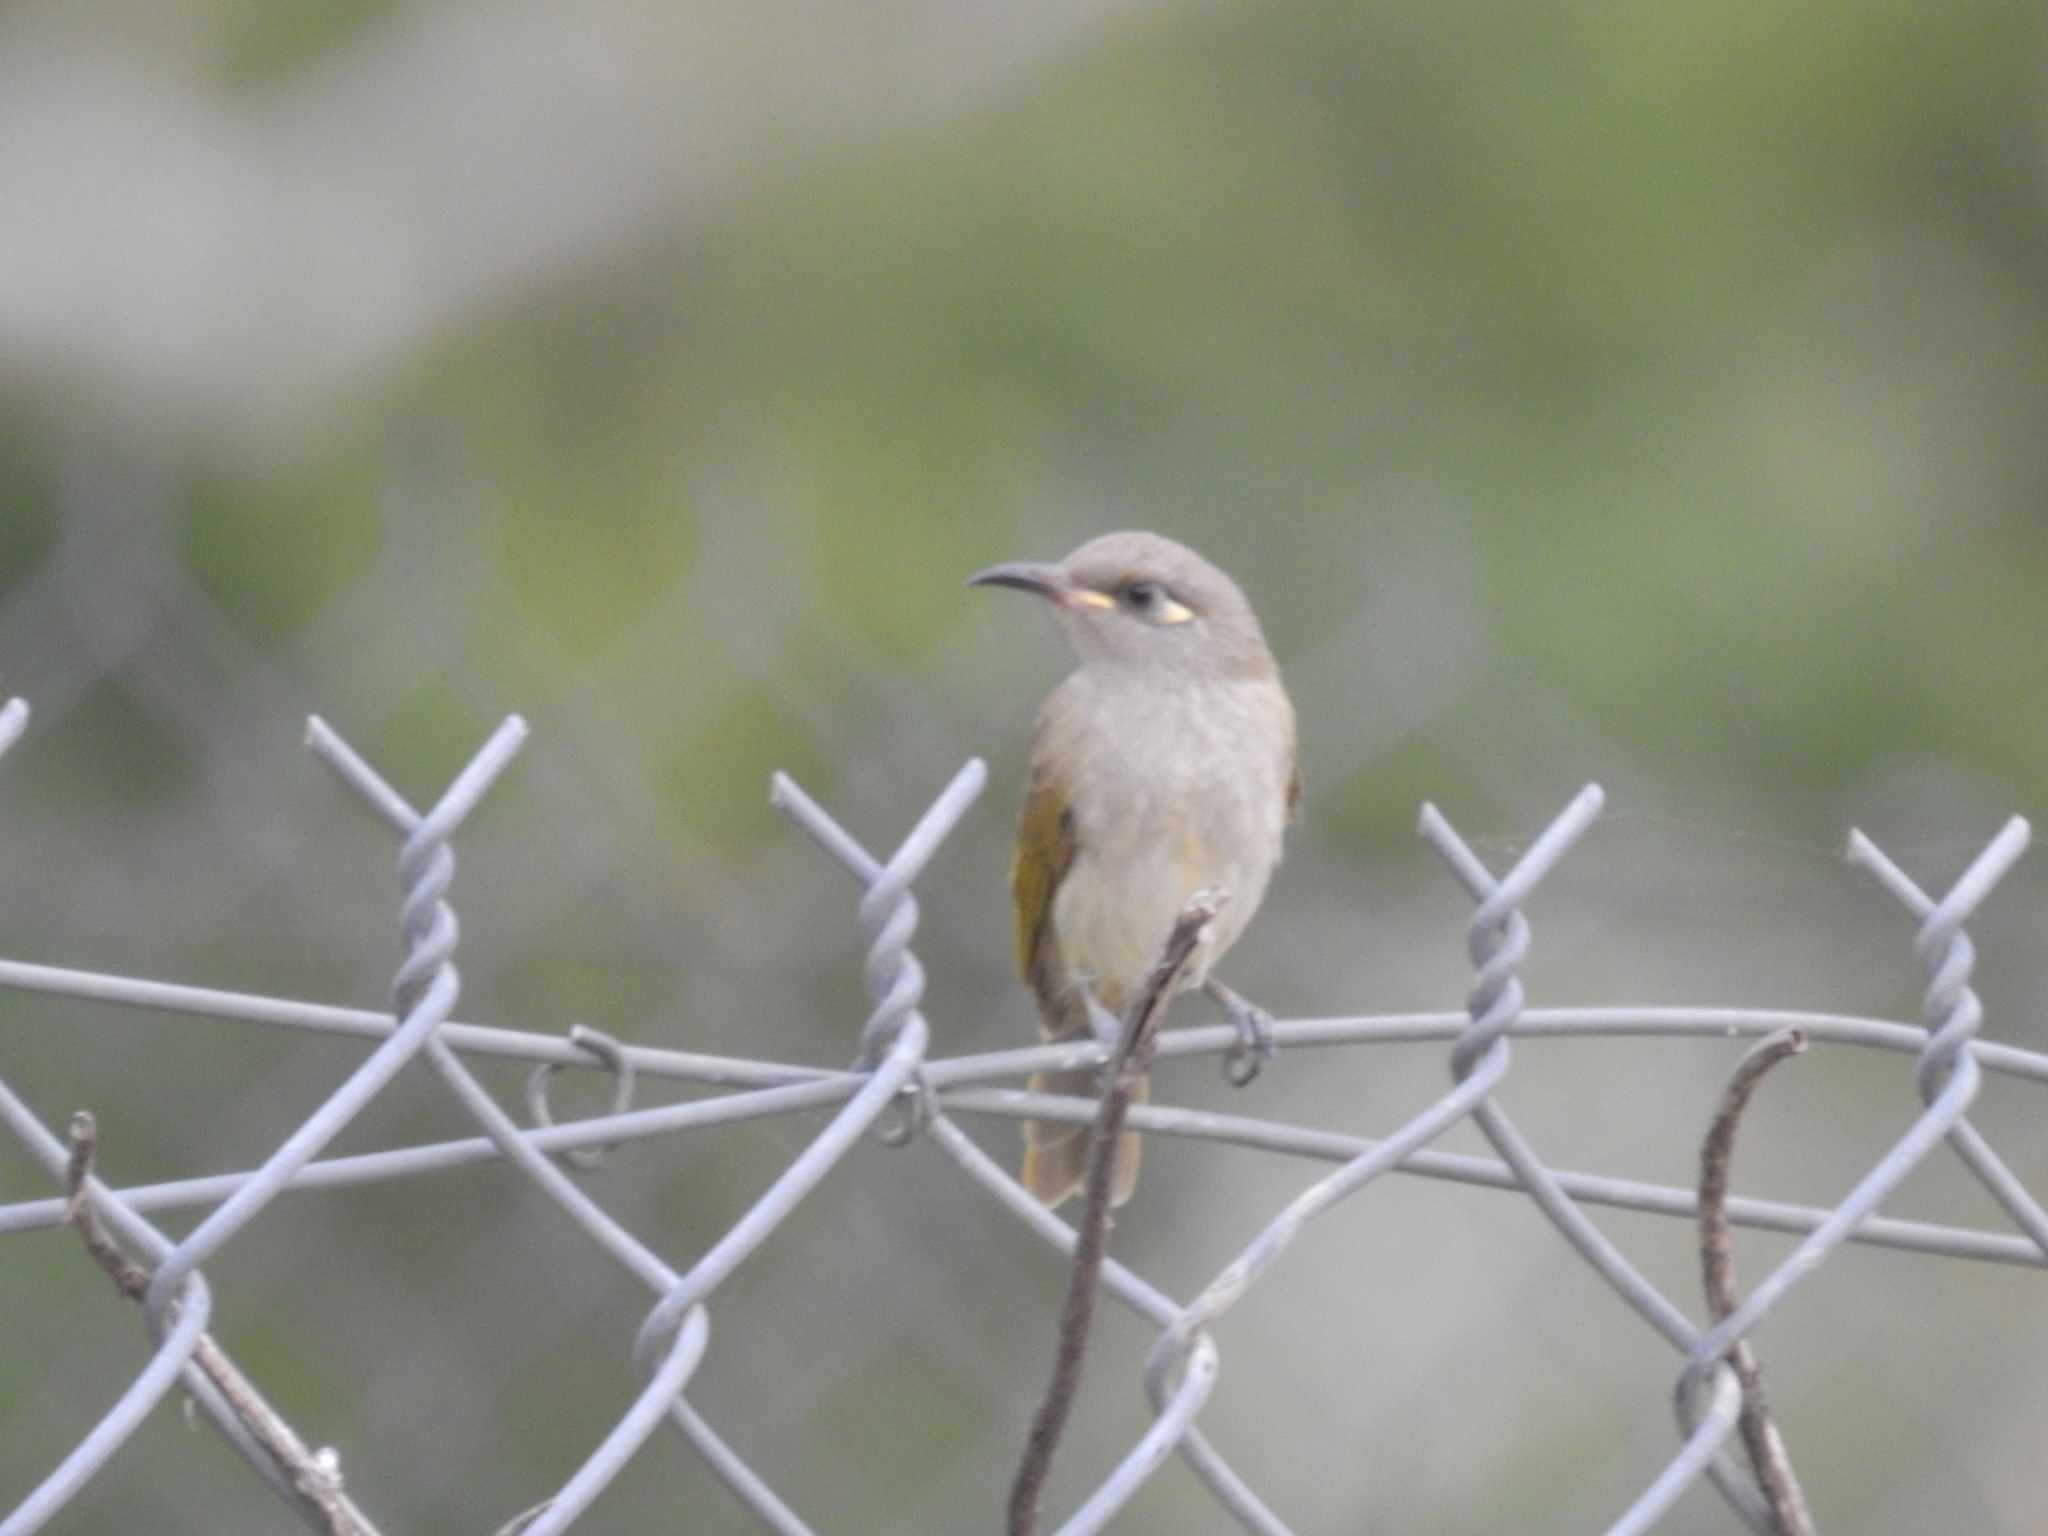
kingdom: Animalia
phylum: Chordata
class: Aves
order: Passeriformes
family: Meliphagidae
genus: Lichmera
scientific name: Lichmera indistincta
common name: Brown honeyeater
